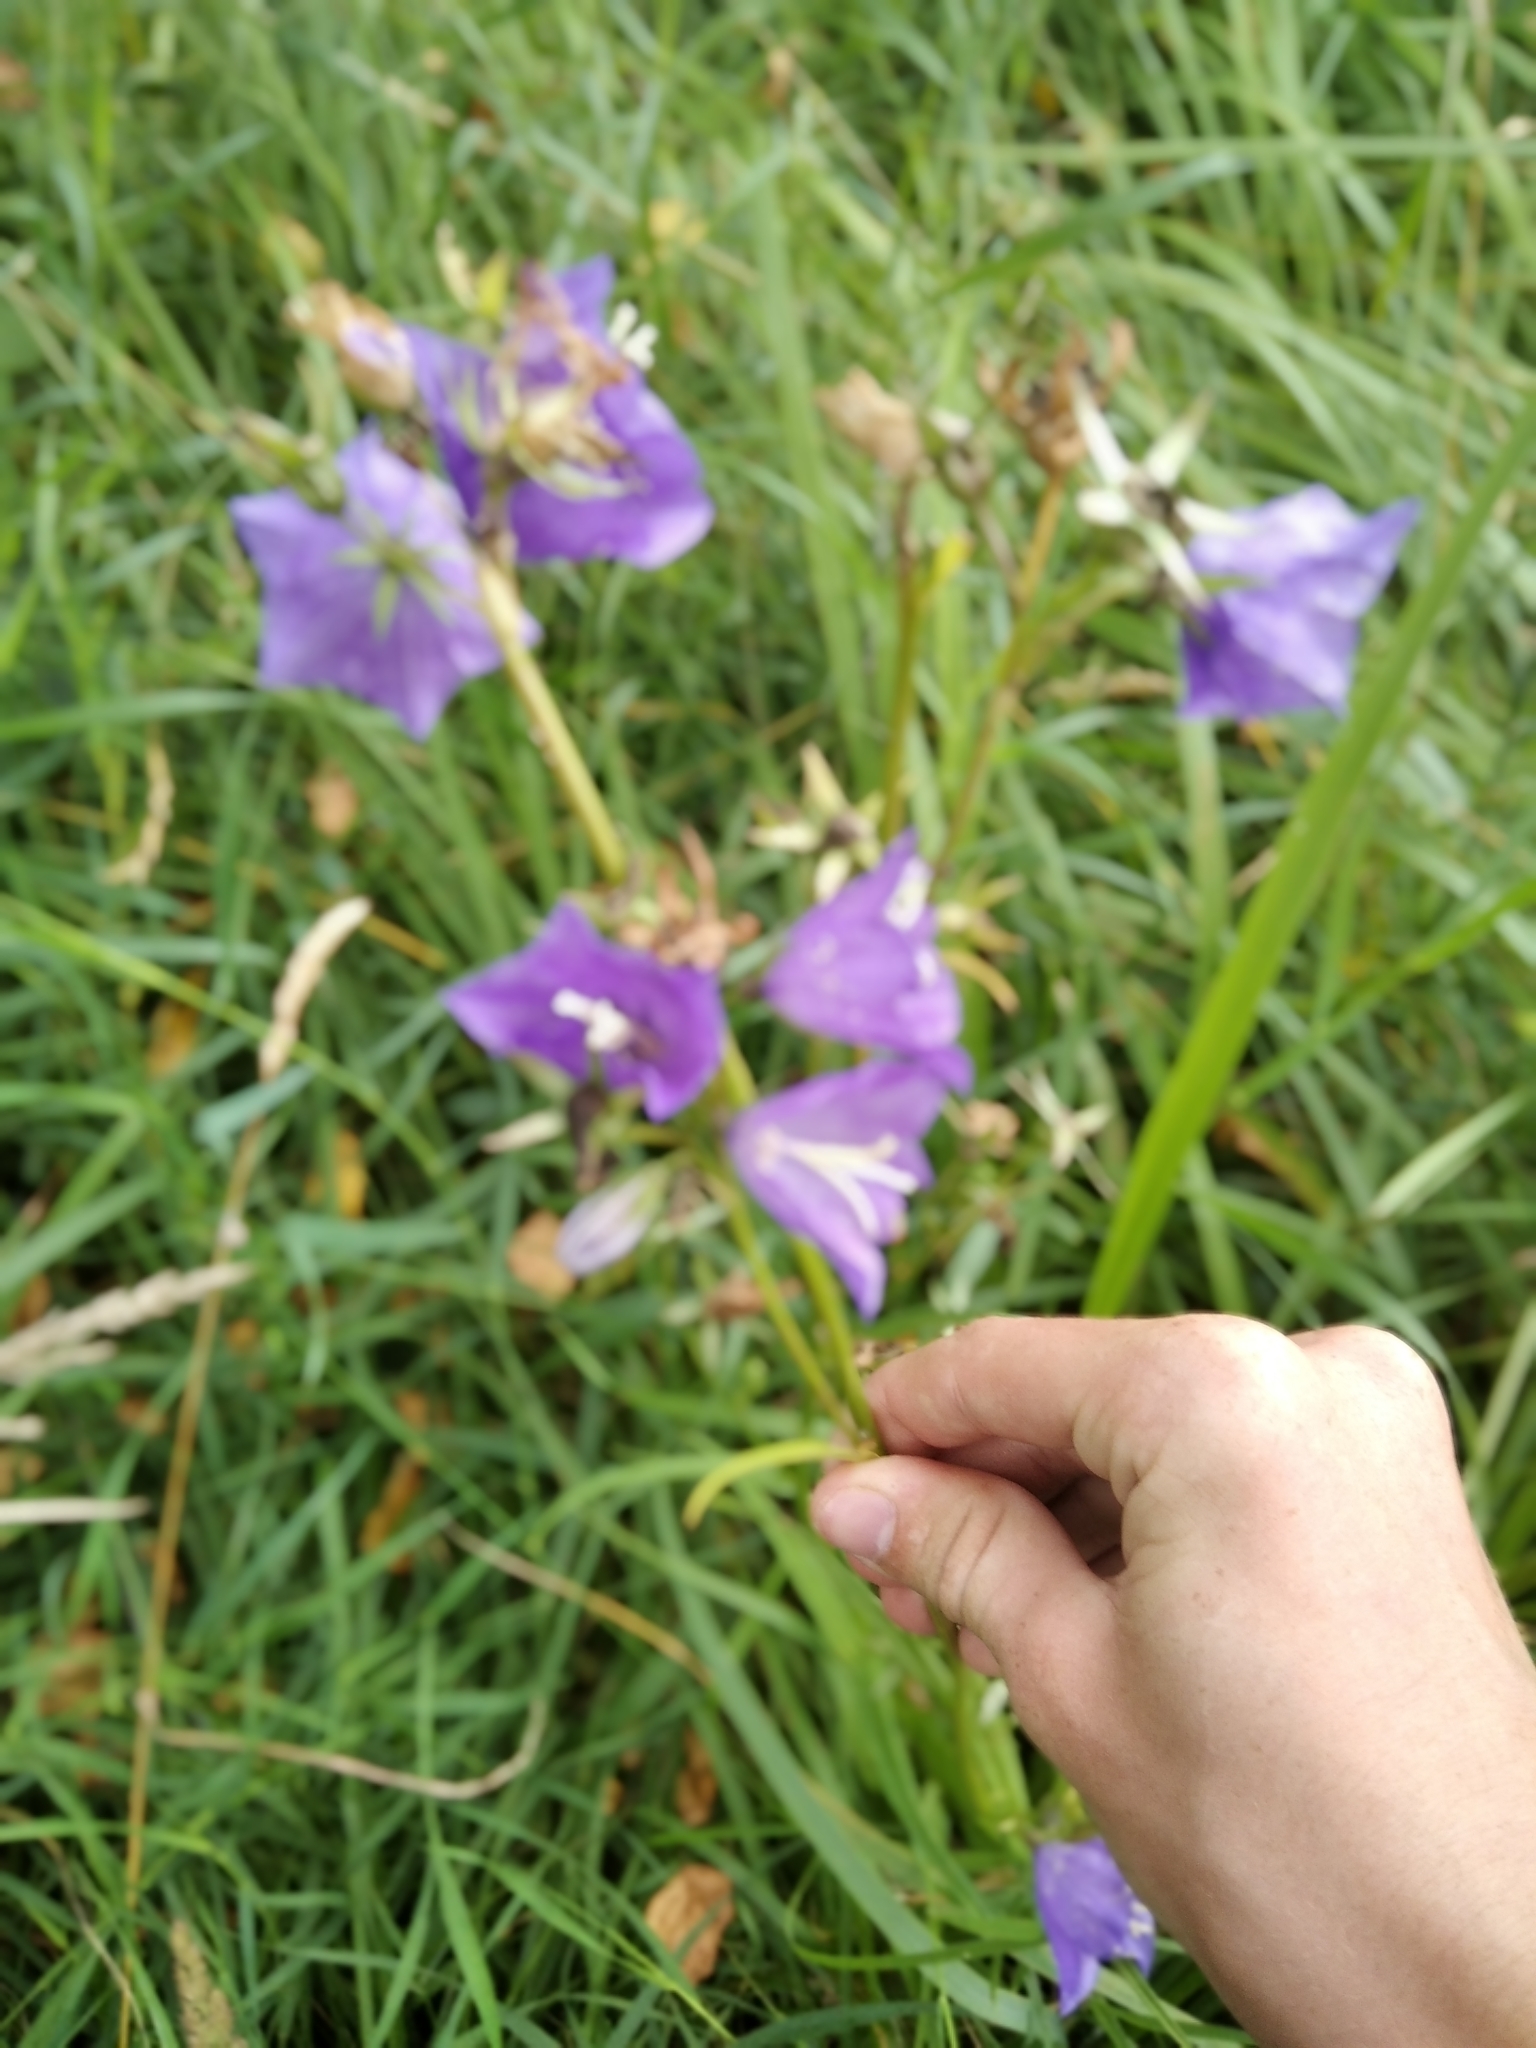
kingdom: Plantae
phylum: Tracheophyta
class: Magnoliopsida
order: Asterales
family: Campanulaceae
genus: Campanula
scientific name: Campanula persicifolia
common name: Peach-leaved bellflower
